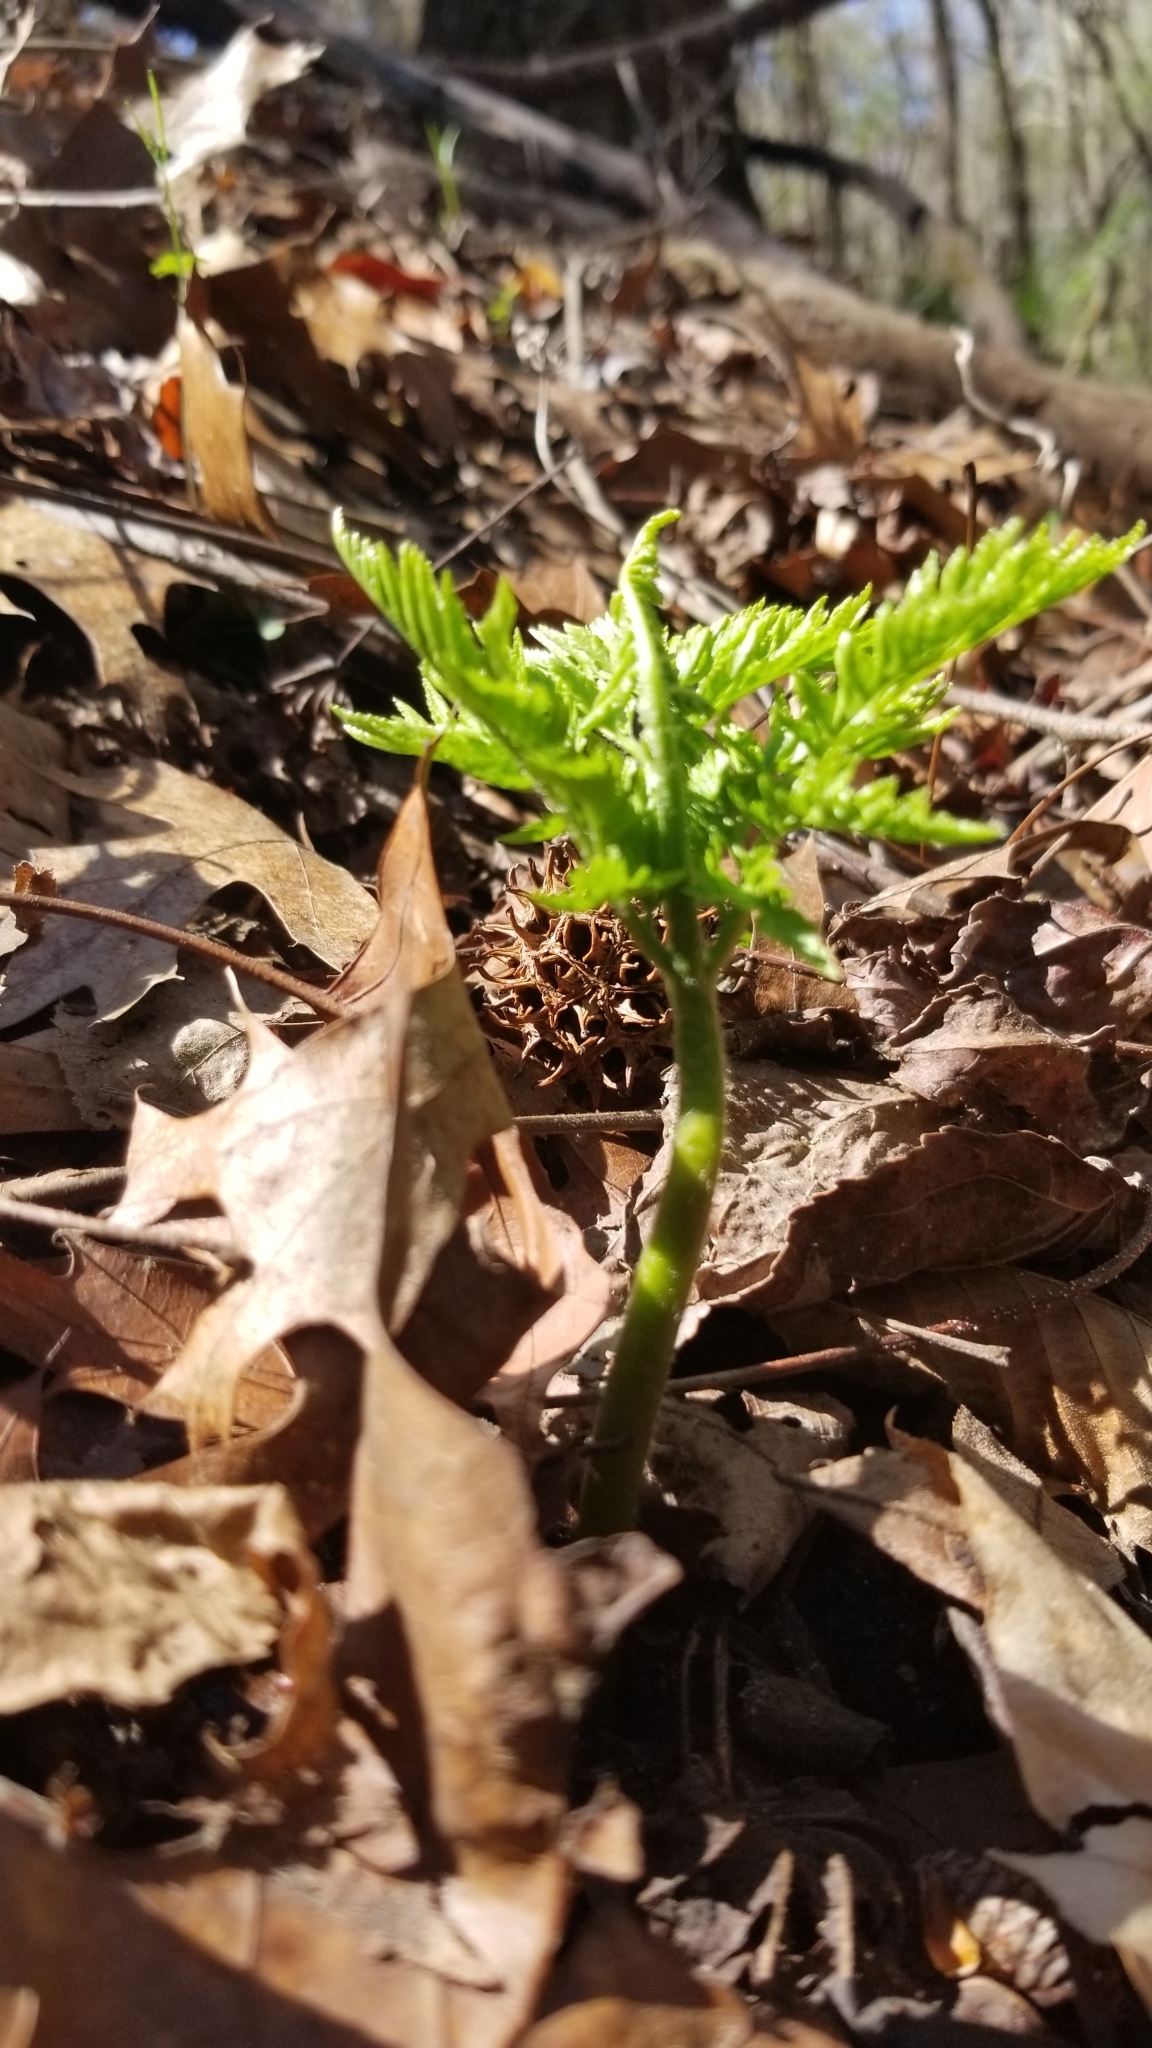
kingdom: Plantae
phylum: Tracheophyta
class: Polypodiopsida
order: Ophioglossales
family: Ophioglossaceae
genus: Botrypus
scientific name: Botrypus virginianus
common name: Common grapefern
